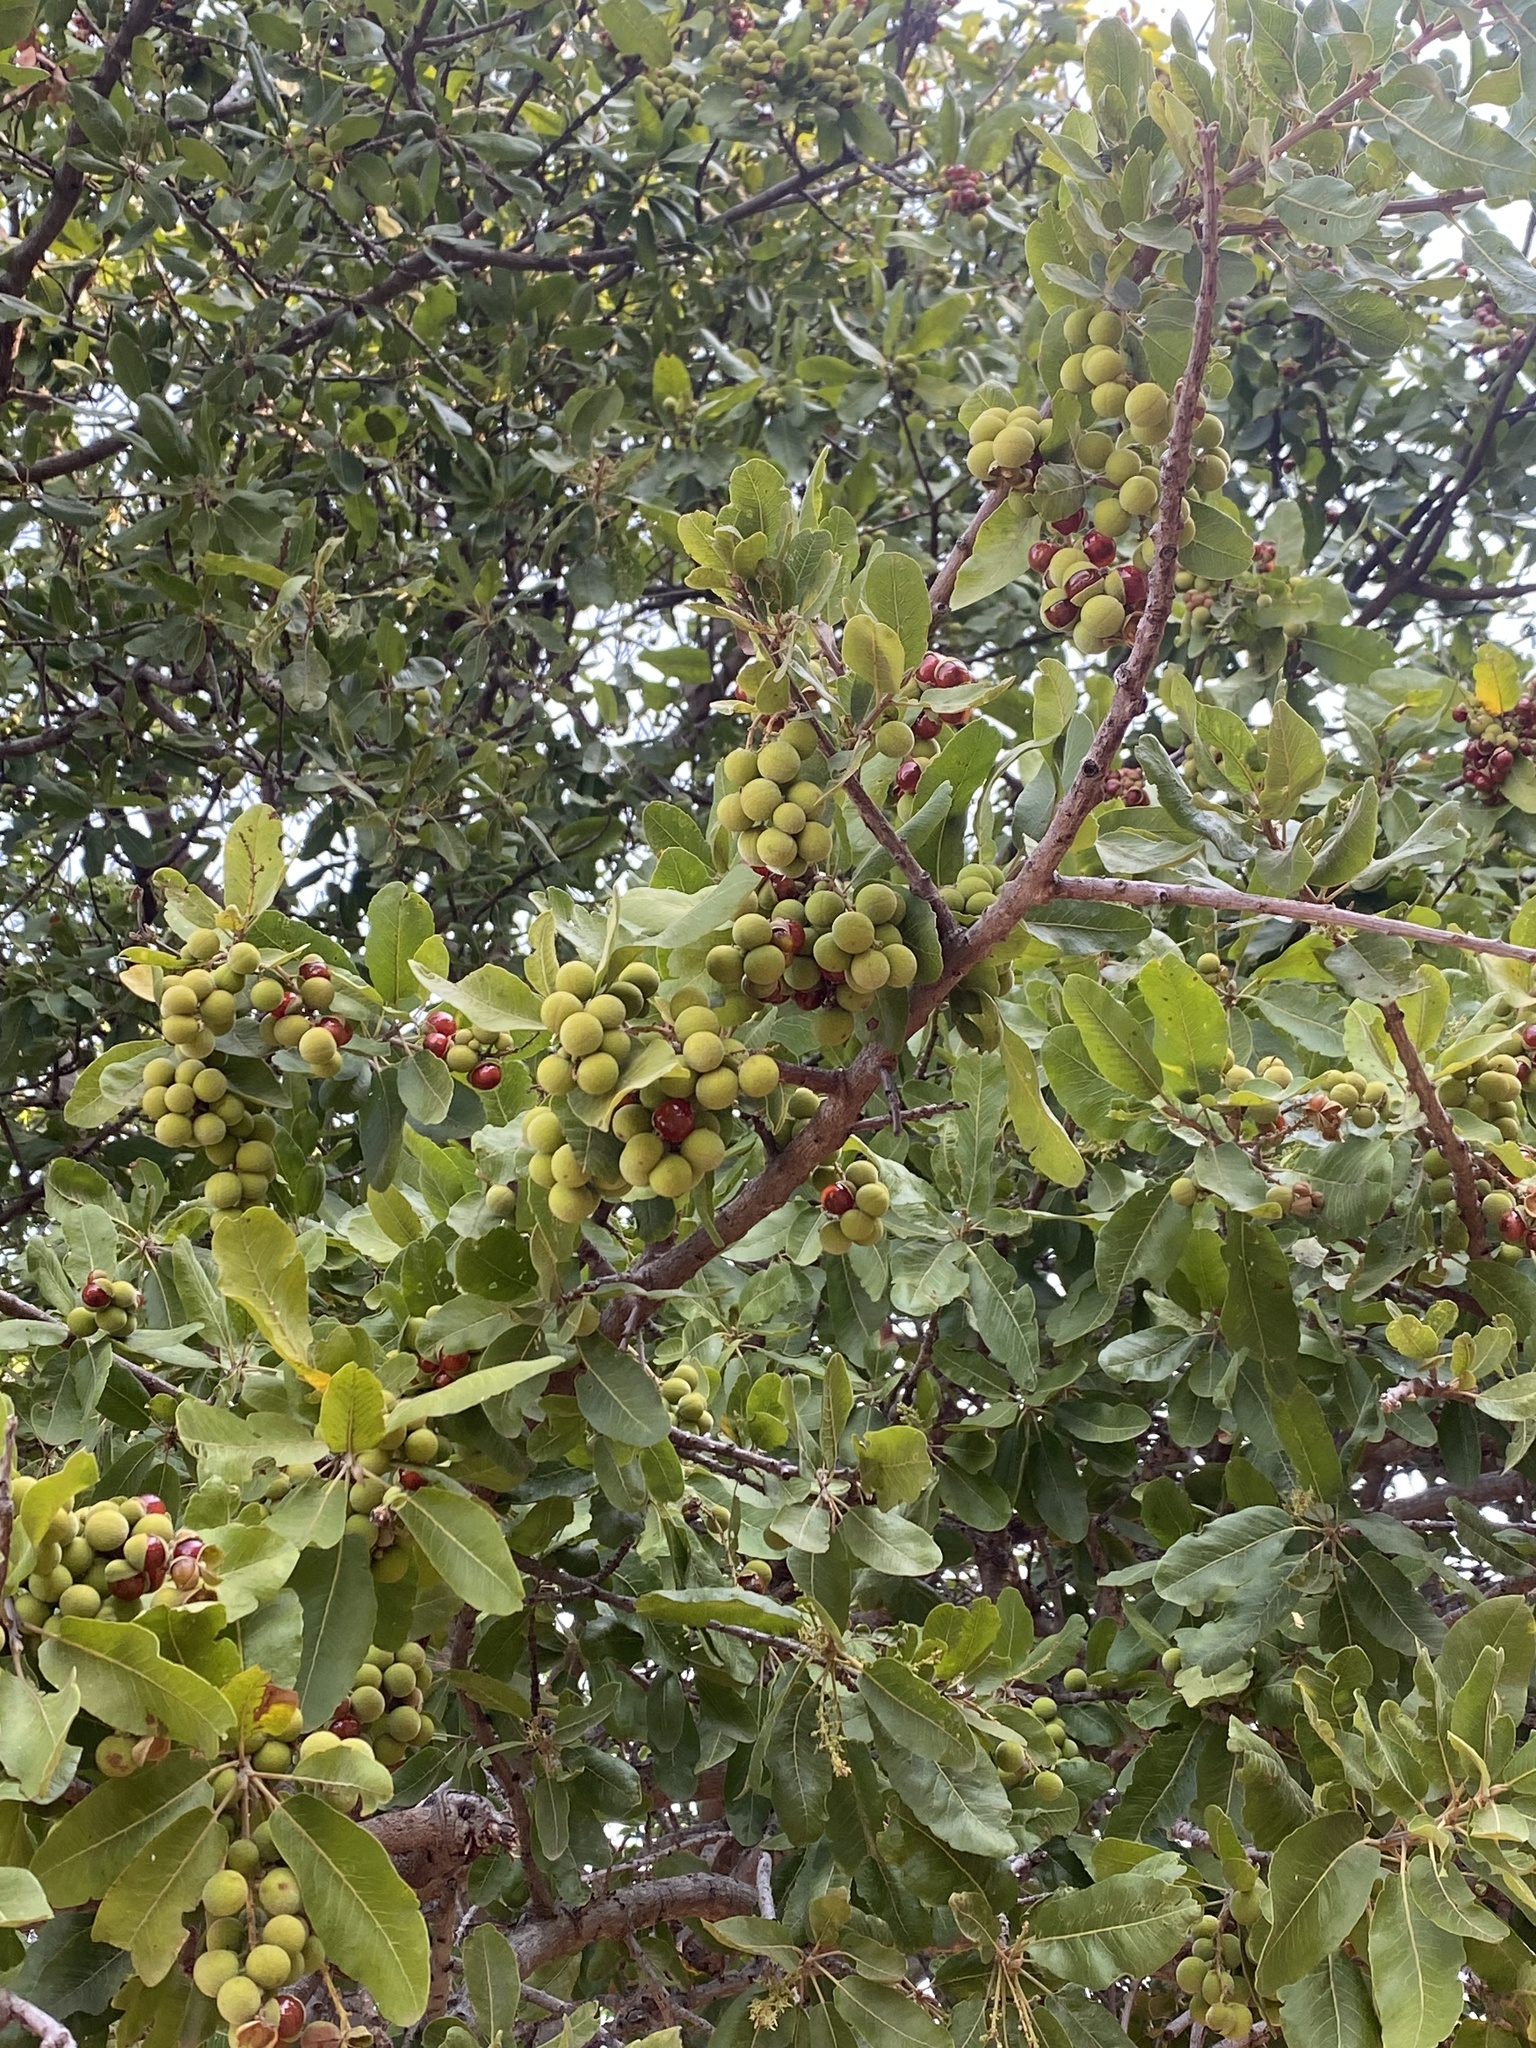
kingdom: Plantae
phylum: Tracheophyta
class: Magnoliopsida
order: Sapindales
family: Sapindaceae
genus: Pappea
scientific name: Pappea capensis
